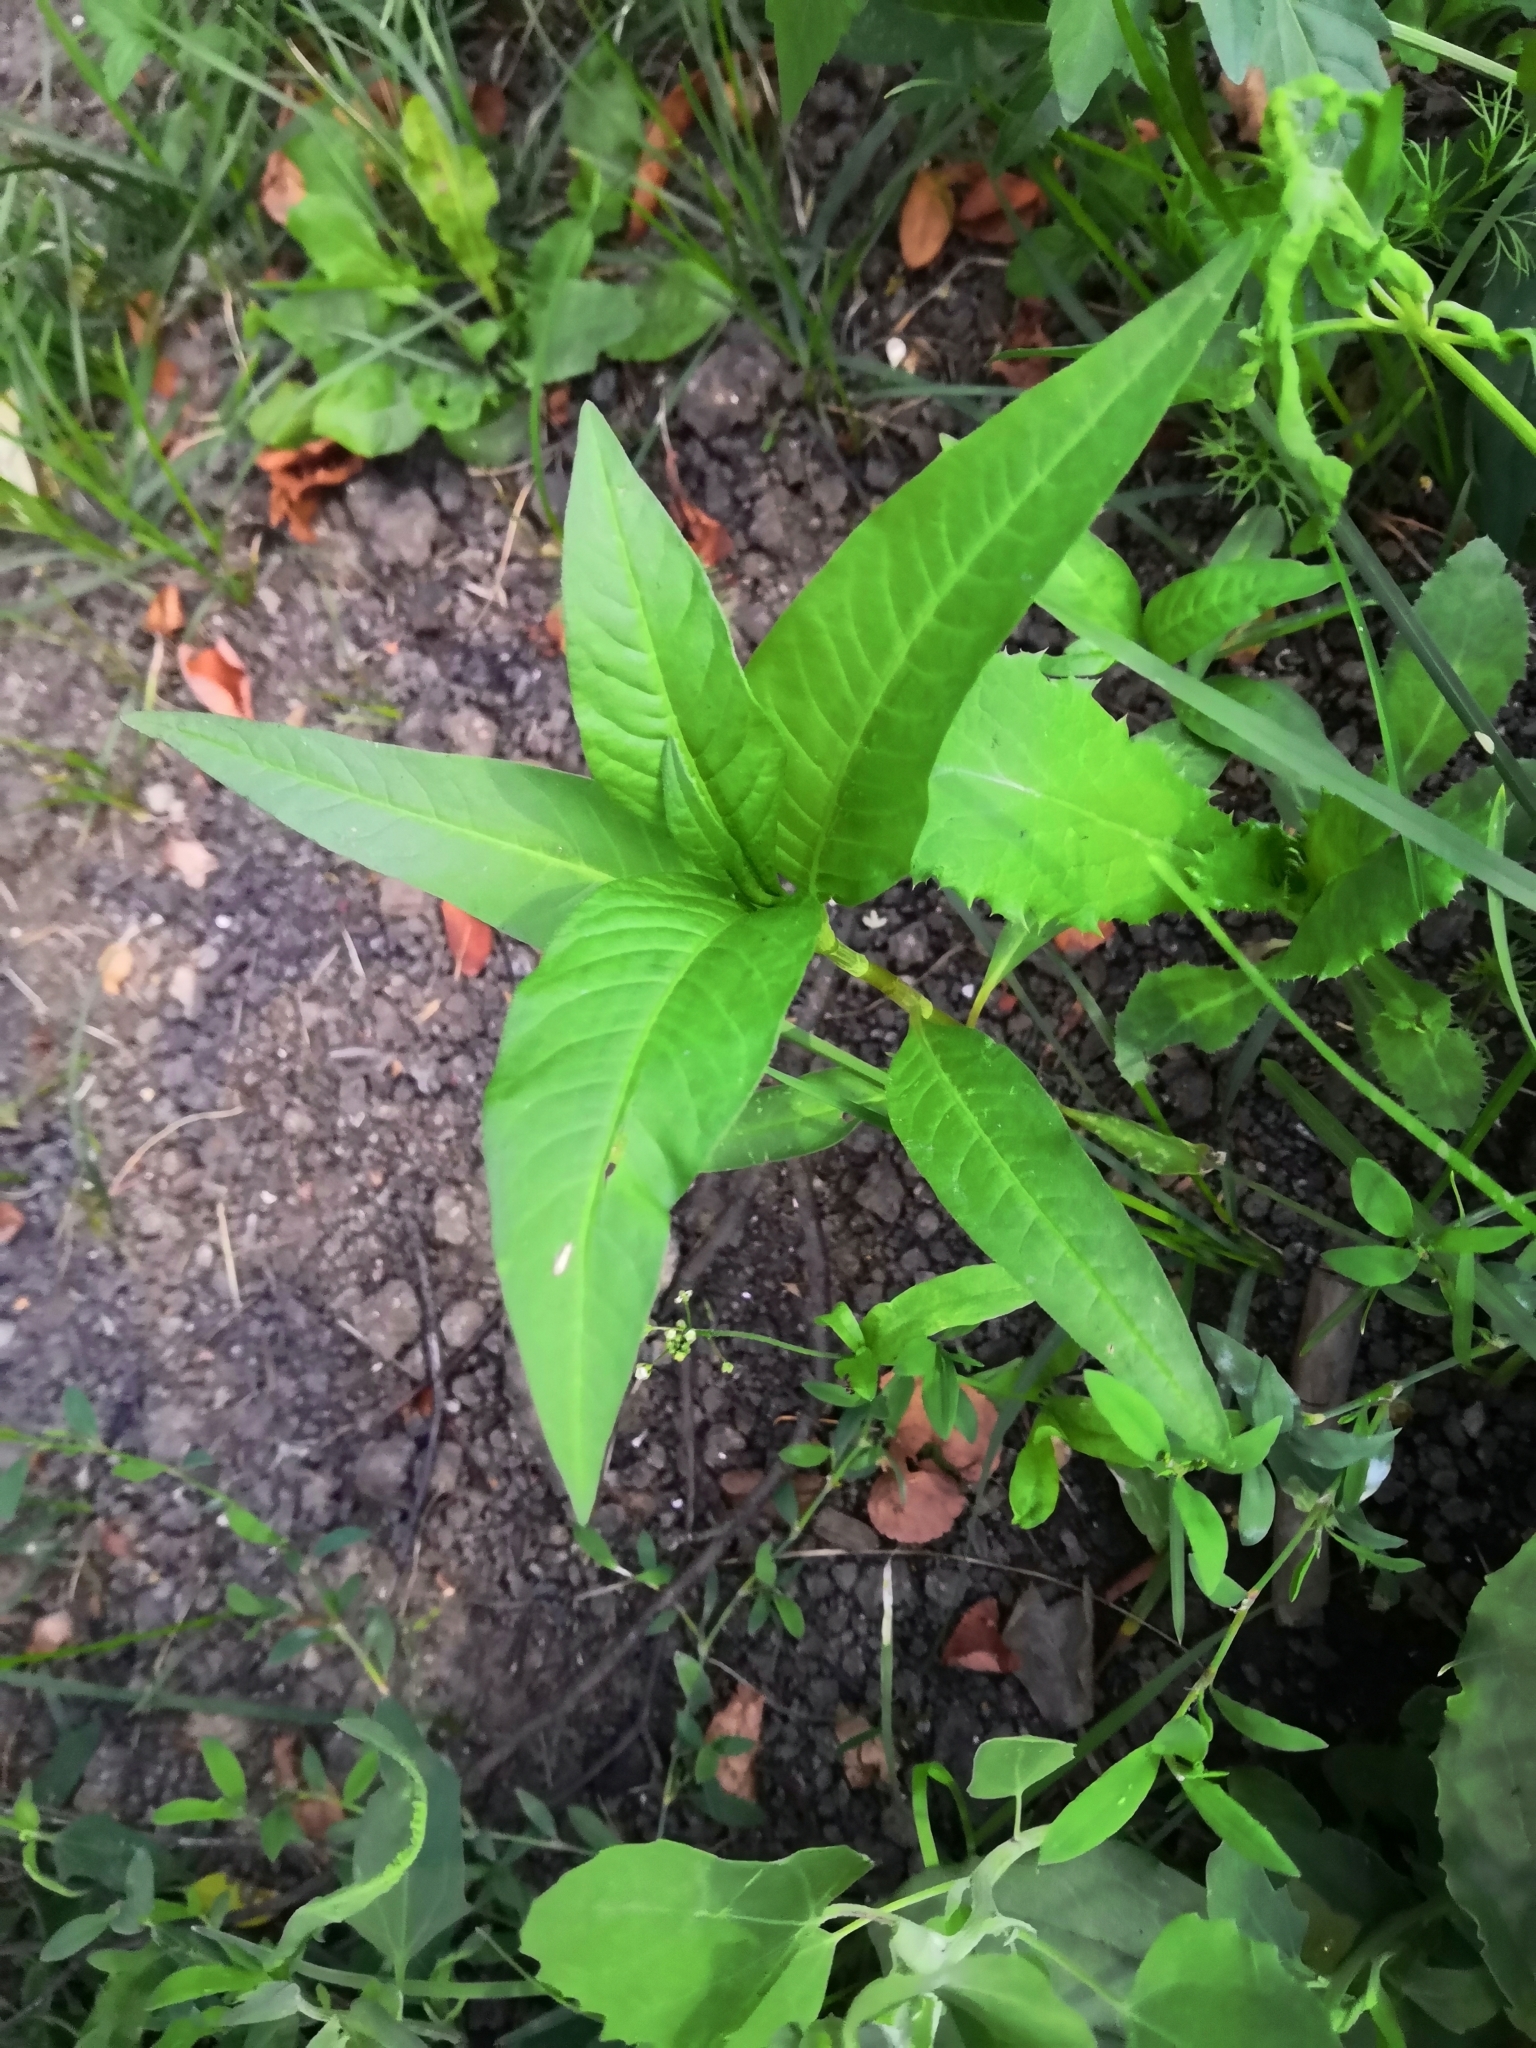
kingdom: Plantae
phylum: Tracheophyta
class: Magnoliopsida
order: Caryophyllales
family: Polygonaceae
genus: Persicaria
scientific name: Persicaria lapathifolia
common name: Curlytop knotweed
